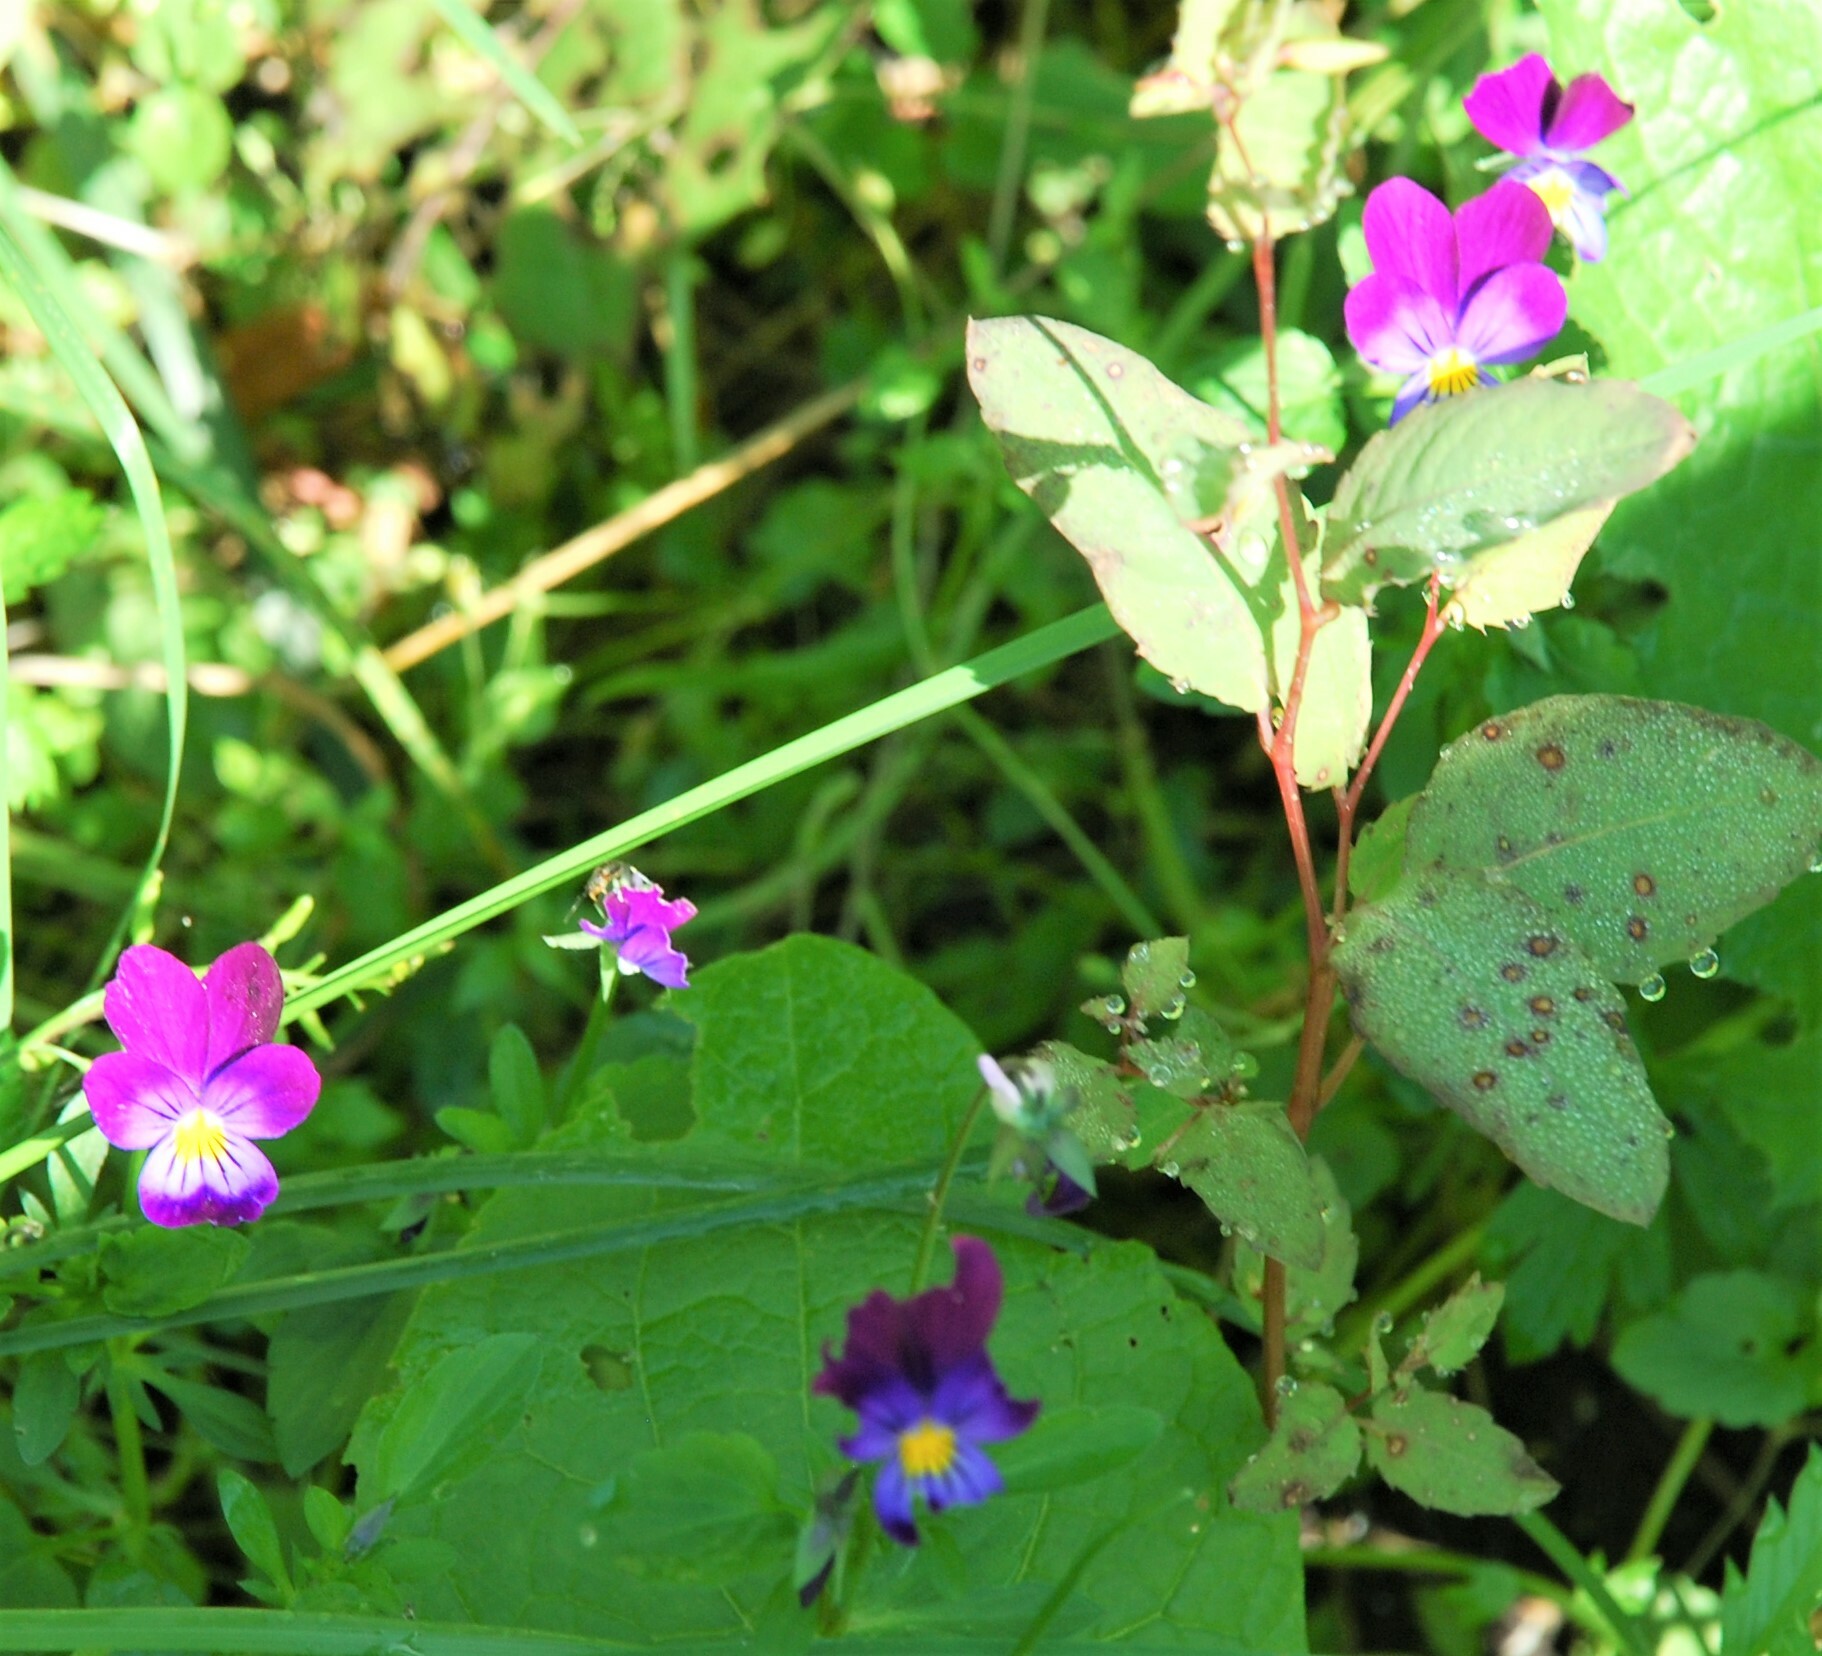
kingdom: Plantae
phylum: Tracheophyta
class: Magnoliopsida
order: Malpighiales
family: Violaceae
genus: Viola
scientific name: Viola wittrockiana
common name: Garden pansy
